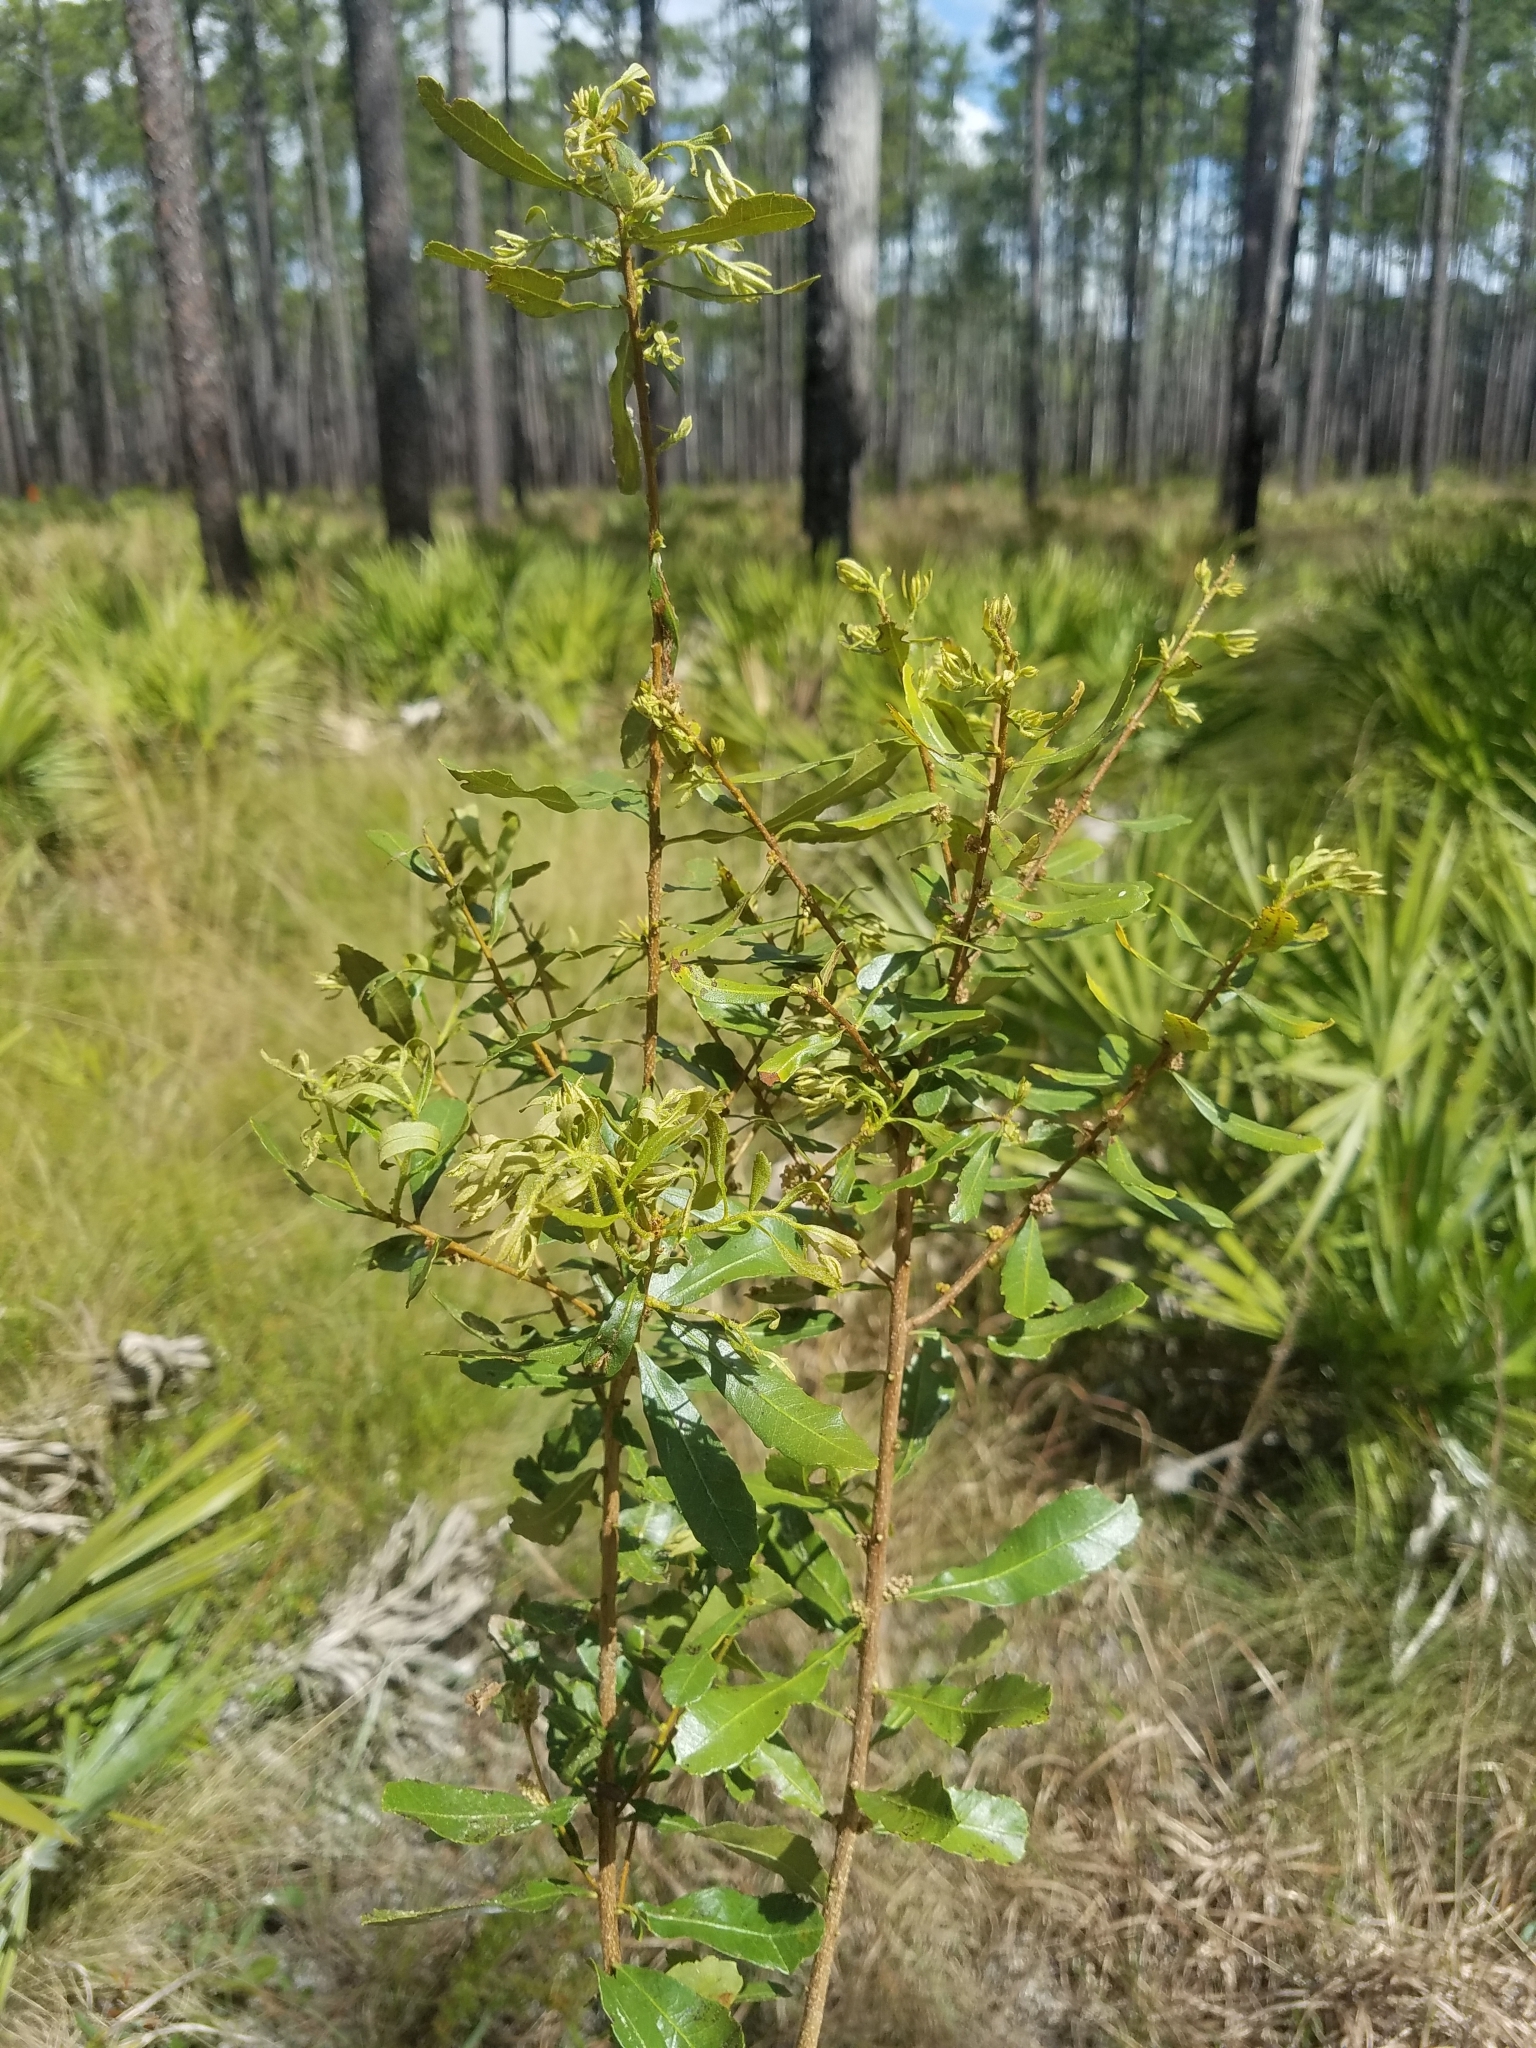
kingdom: Plantae
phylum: Tracheophyta
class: Magnoliopsida
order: Fagales
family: Myricaceae
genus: Morella
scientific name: Morella cerifera
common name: Wax myrtle
